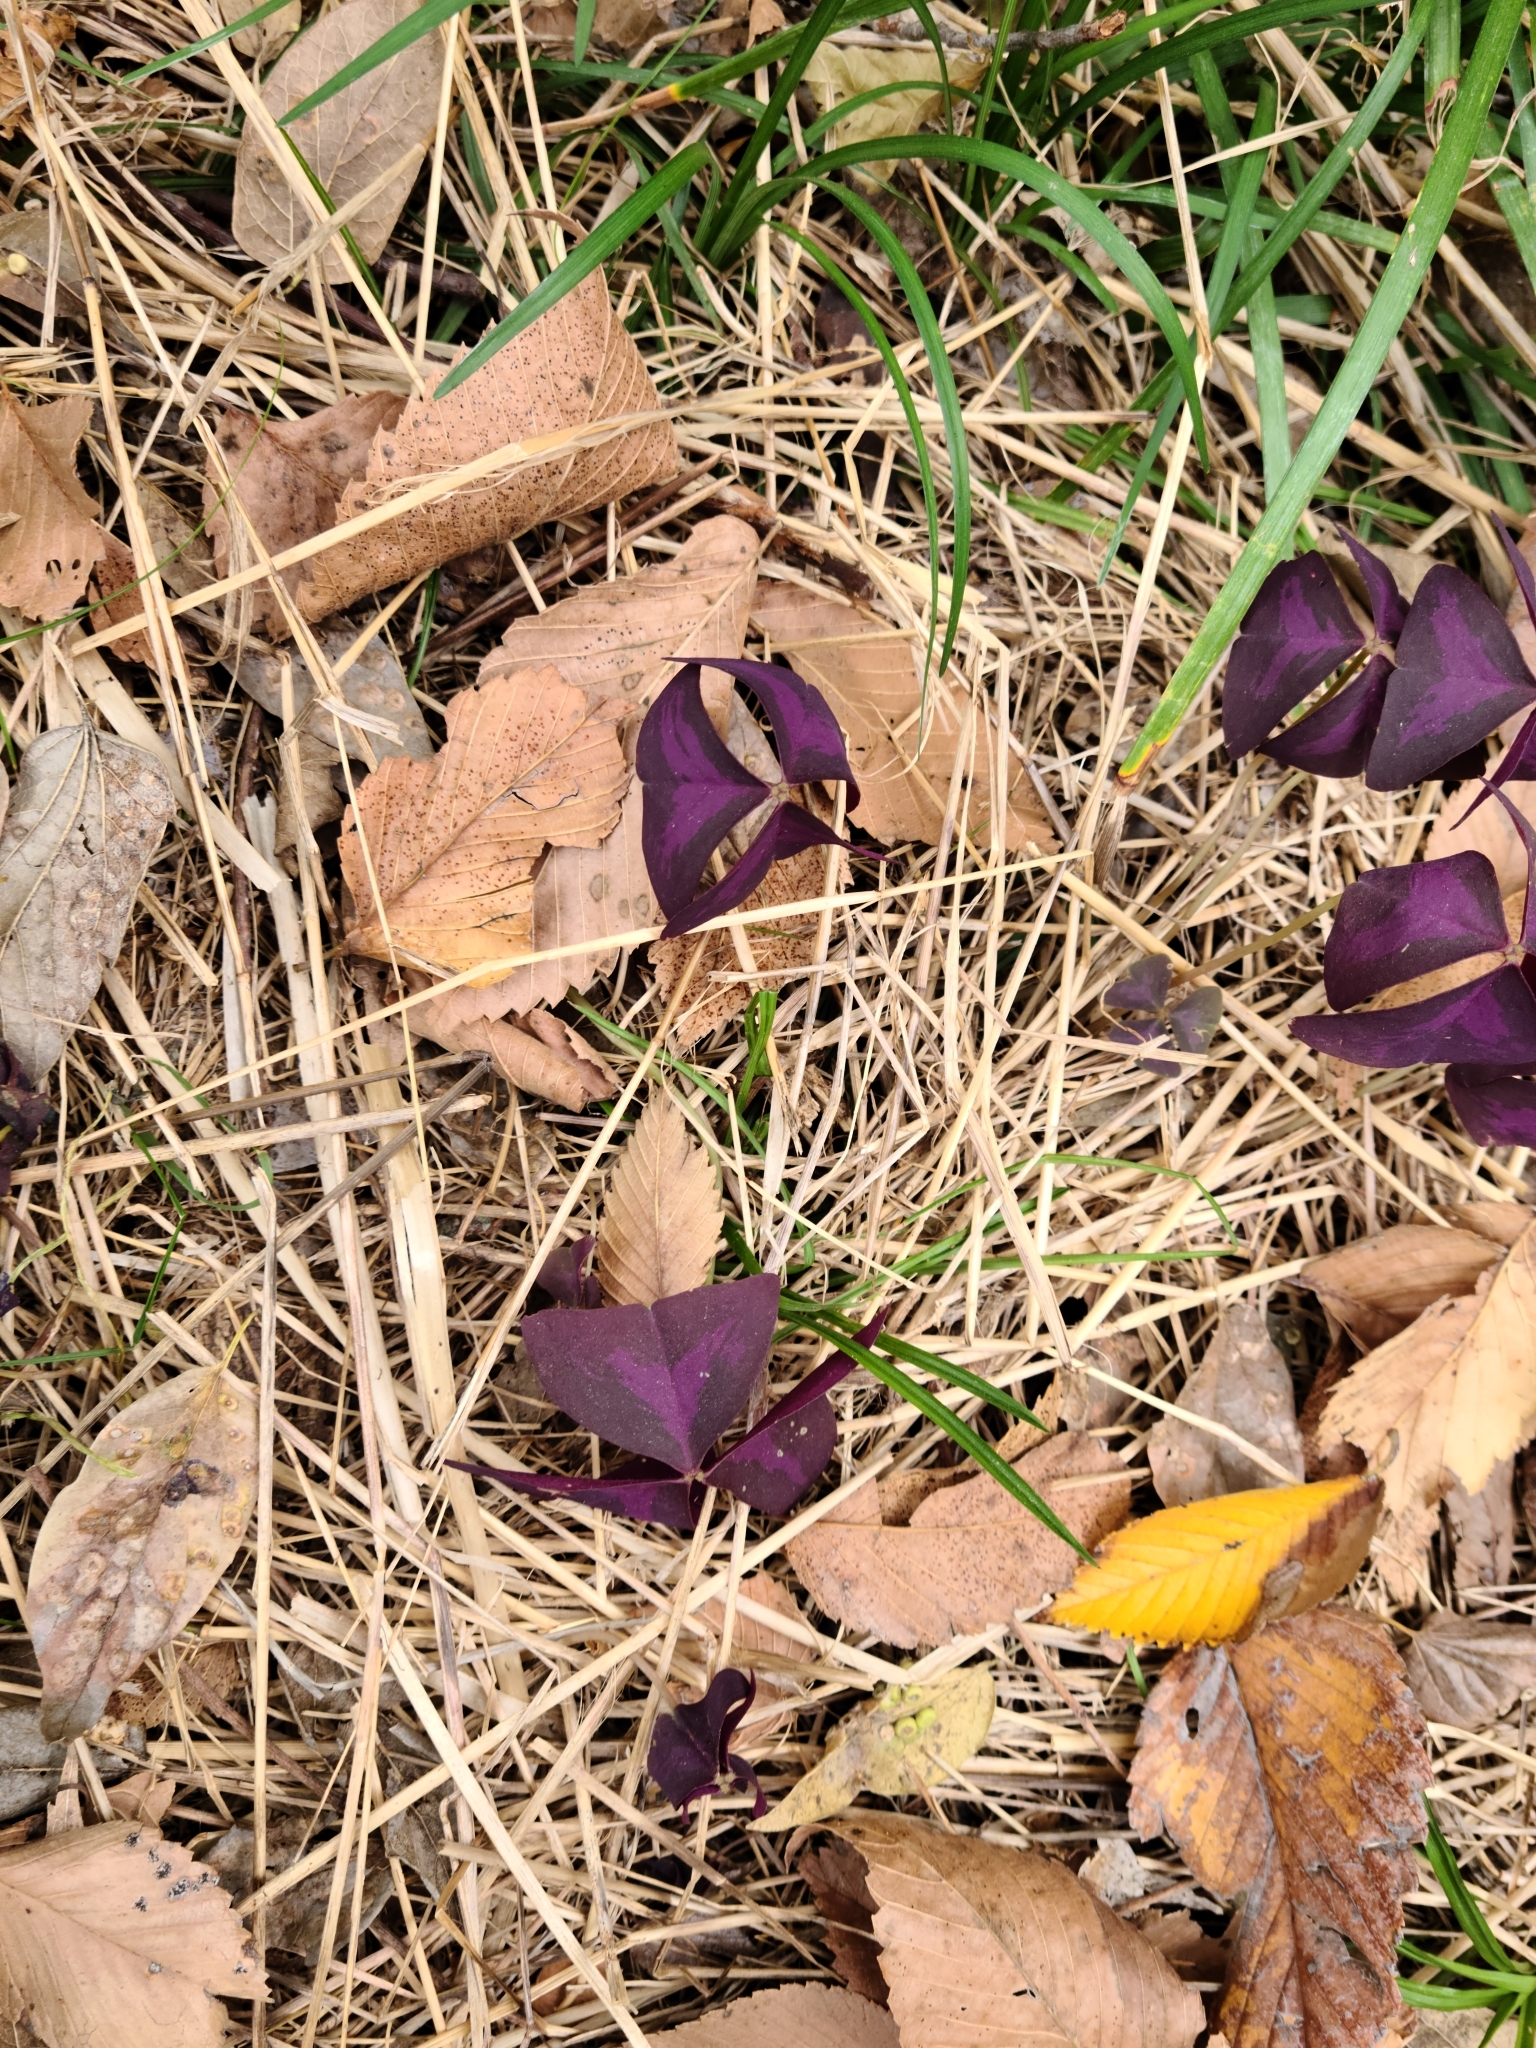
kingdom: Plantae
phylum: Tracheophyta
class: Magnoliopsida
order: Oxalidales
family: Oxalidaceae
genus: Oxalis
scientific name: Oxalis triangularis
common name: Wood sorrel
